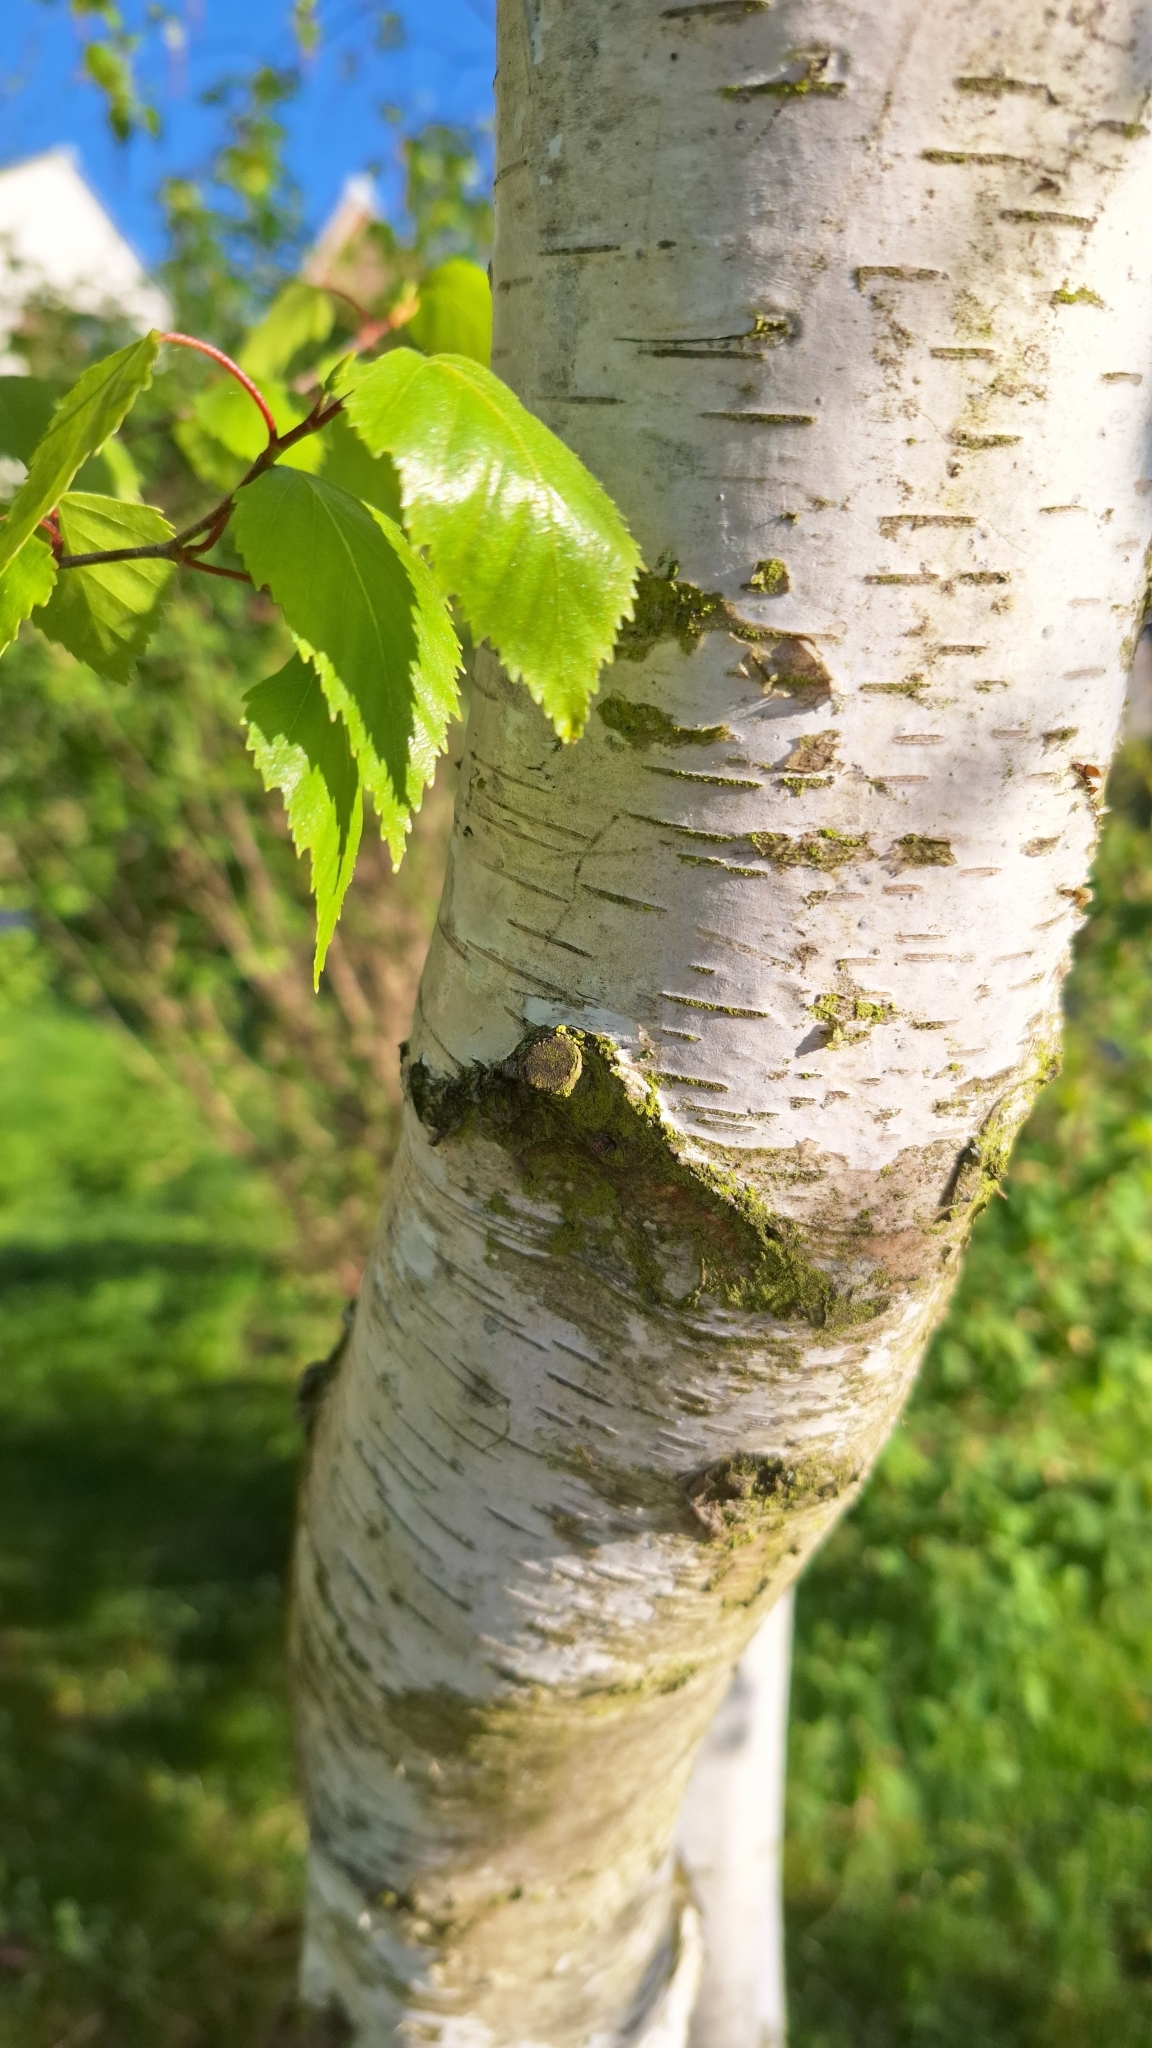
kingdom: Plantae
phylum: Tracheophyta
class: Magnoliopsida
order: Fagales
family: Betulaceae
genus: Betula
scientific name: Betula pendula
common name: Silver birch
